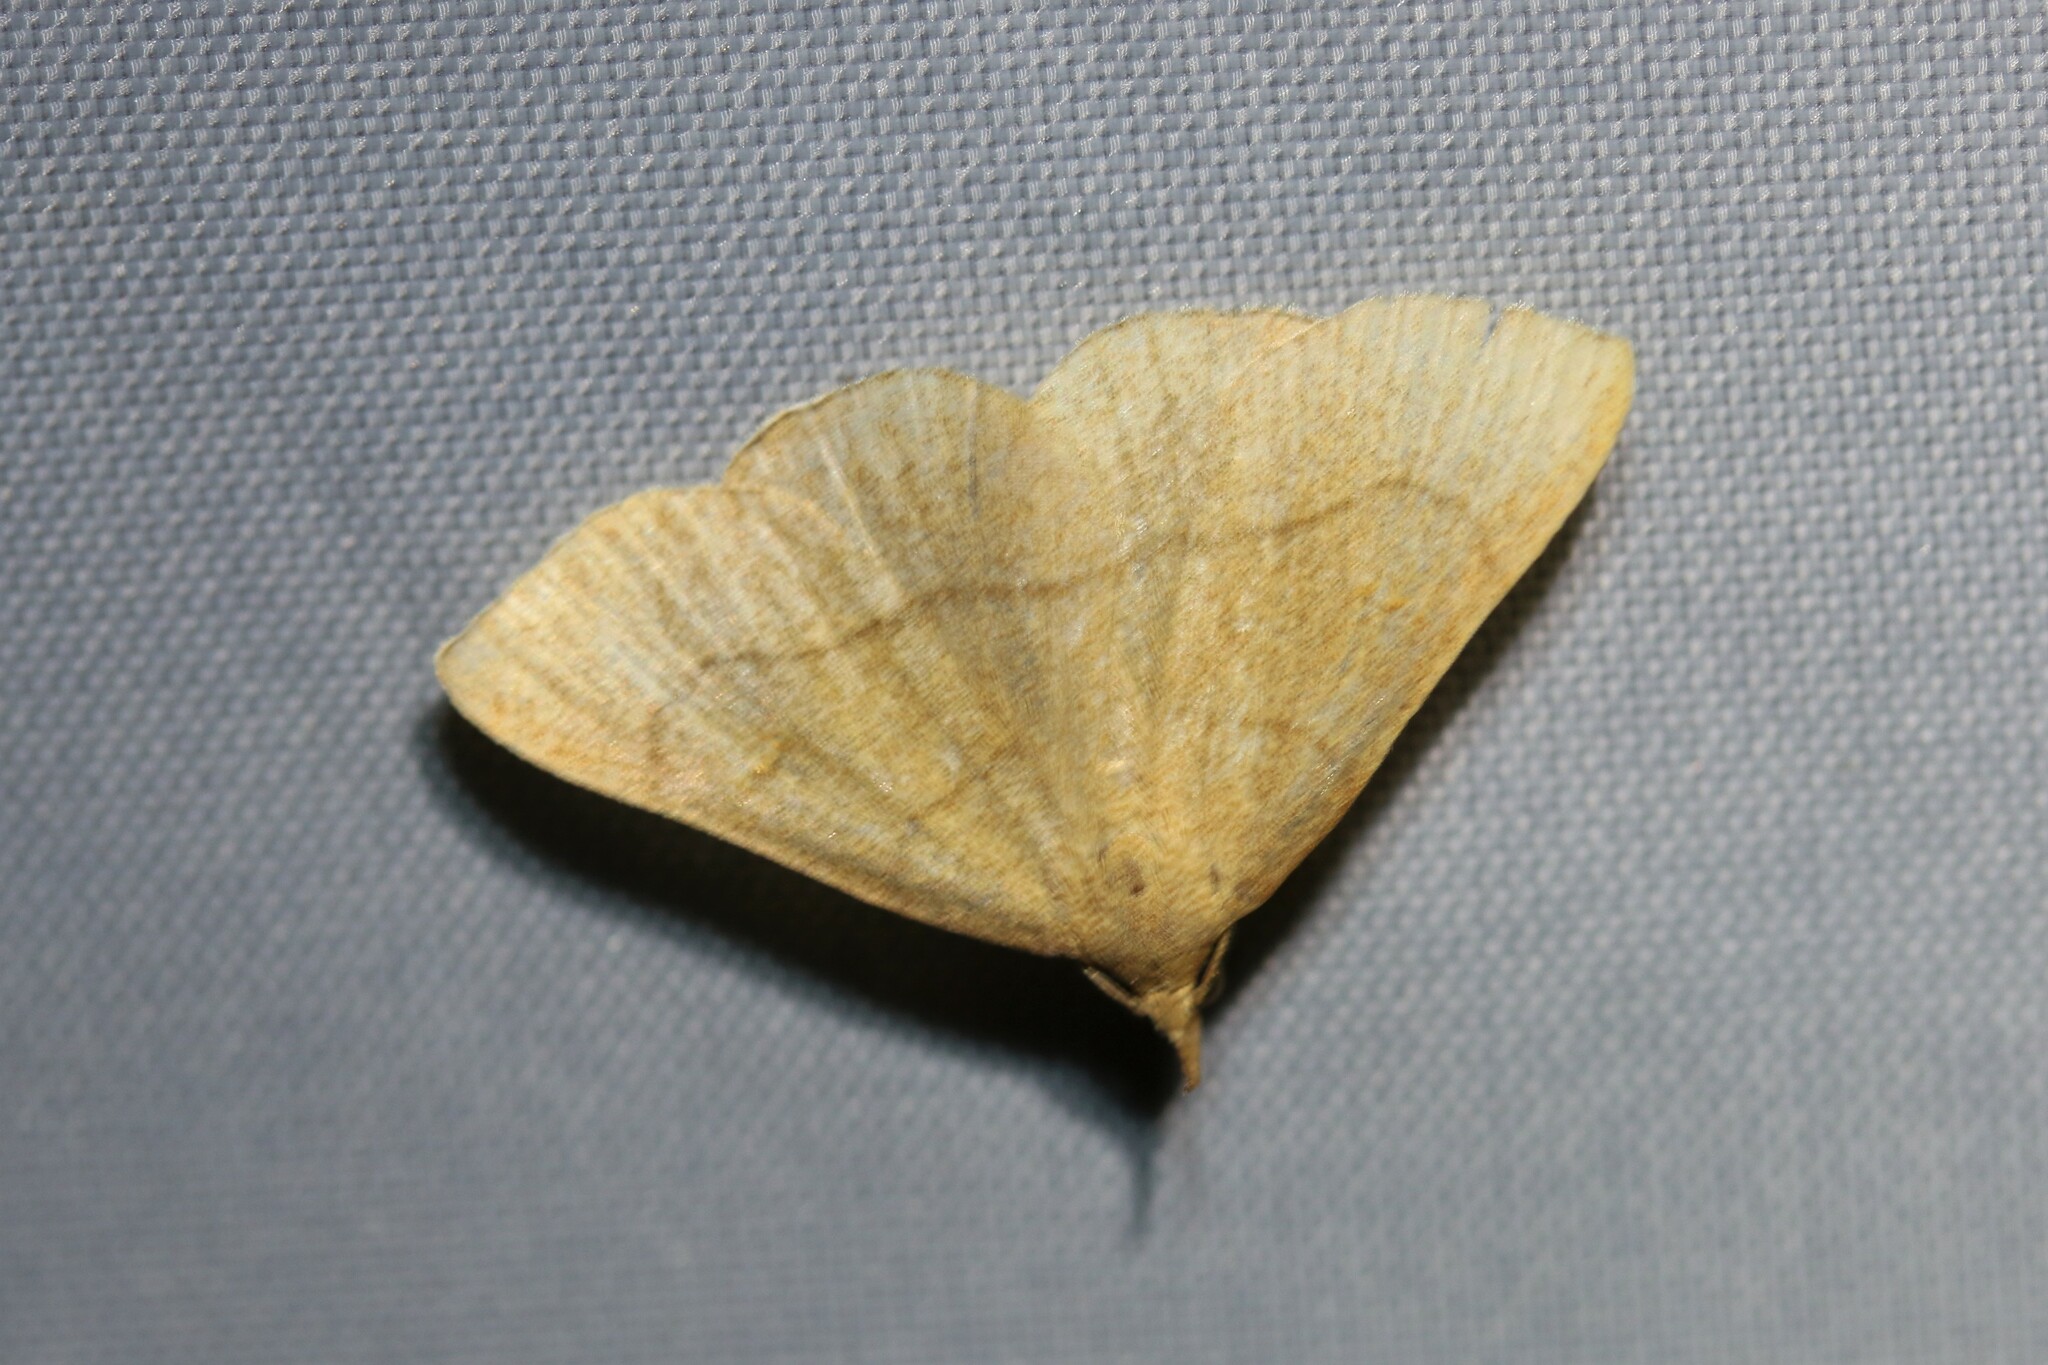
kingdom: Animalia
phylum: Arthropoda
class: Insecta
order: Lepidoptera
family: Erebidae
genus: Paracolax
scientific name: Paracolax tristalis
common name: Clay fan-foot
